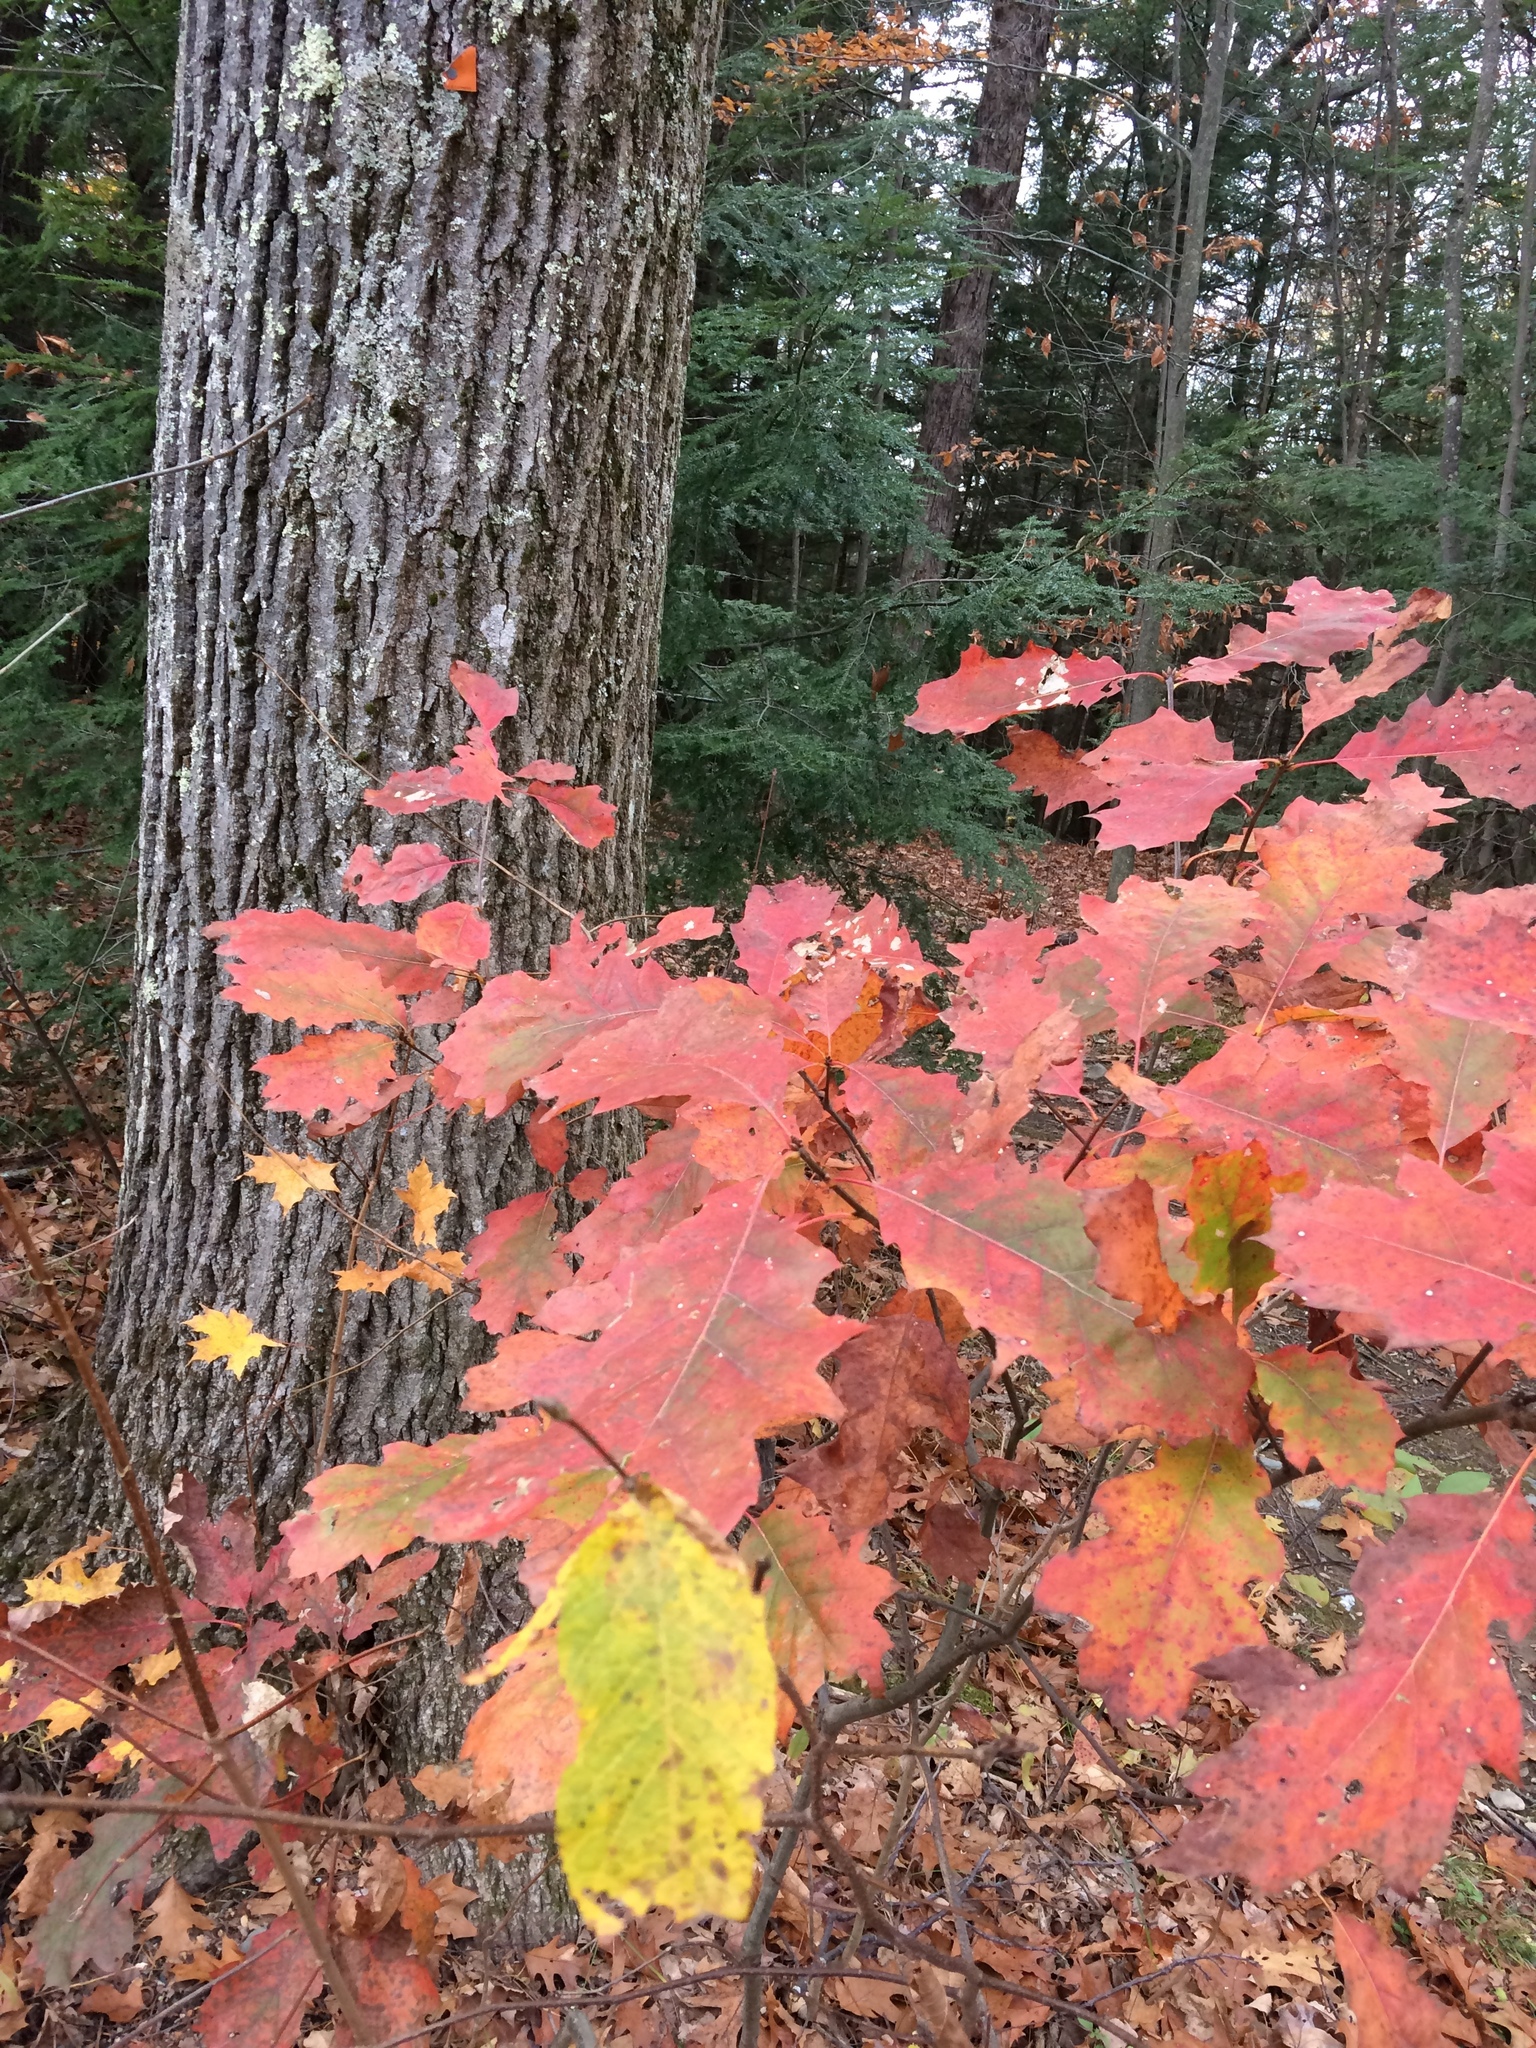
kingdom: Plantae
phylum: Tracheophyta
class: Magnoliopsida
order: Fagales
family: Fagaceae
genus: Quercus
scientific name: Quercus rubra
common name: Red oak
